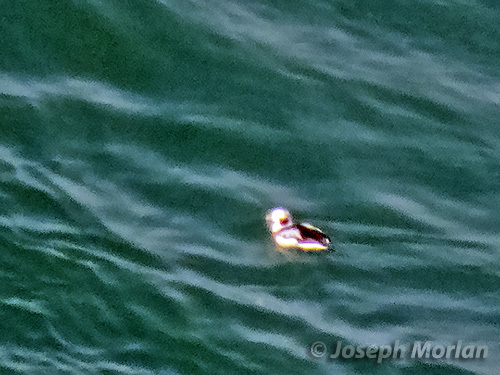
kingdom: Animalia
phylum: Chordata
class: Aves
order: Anseriformes
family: Anatidae
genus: Clangula
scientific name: Clangula hyemalis
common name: Long-tailed duck
